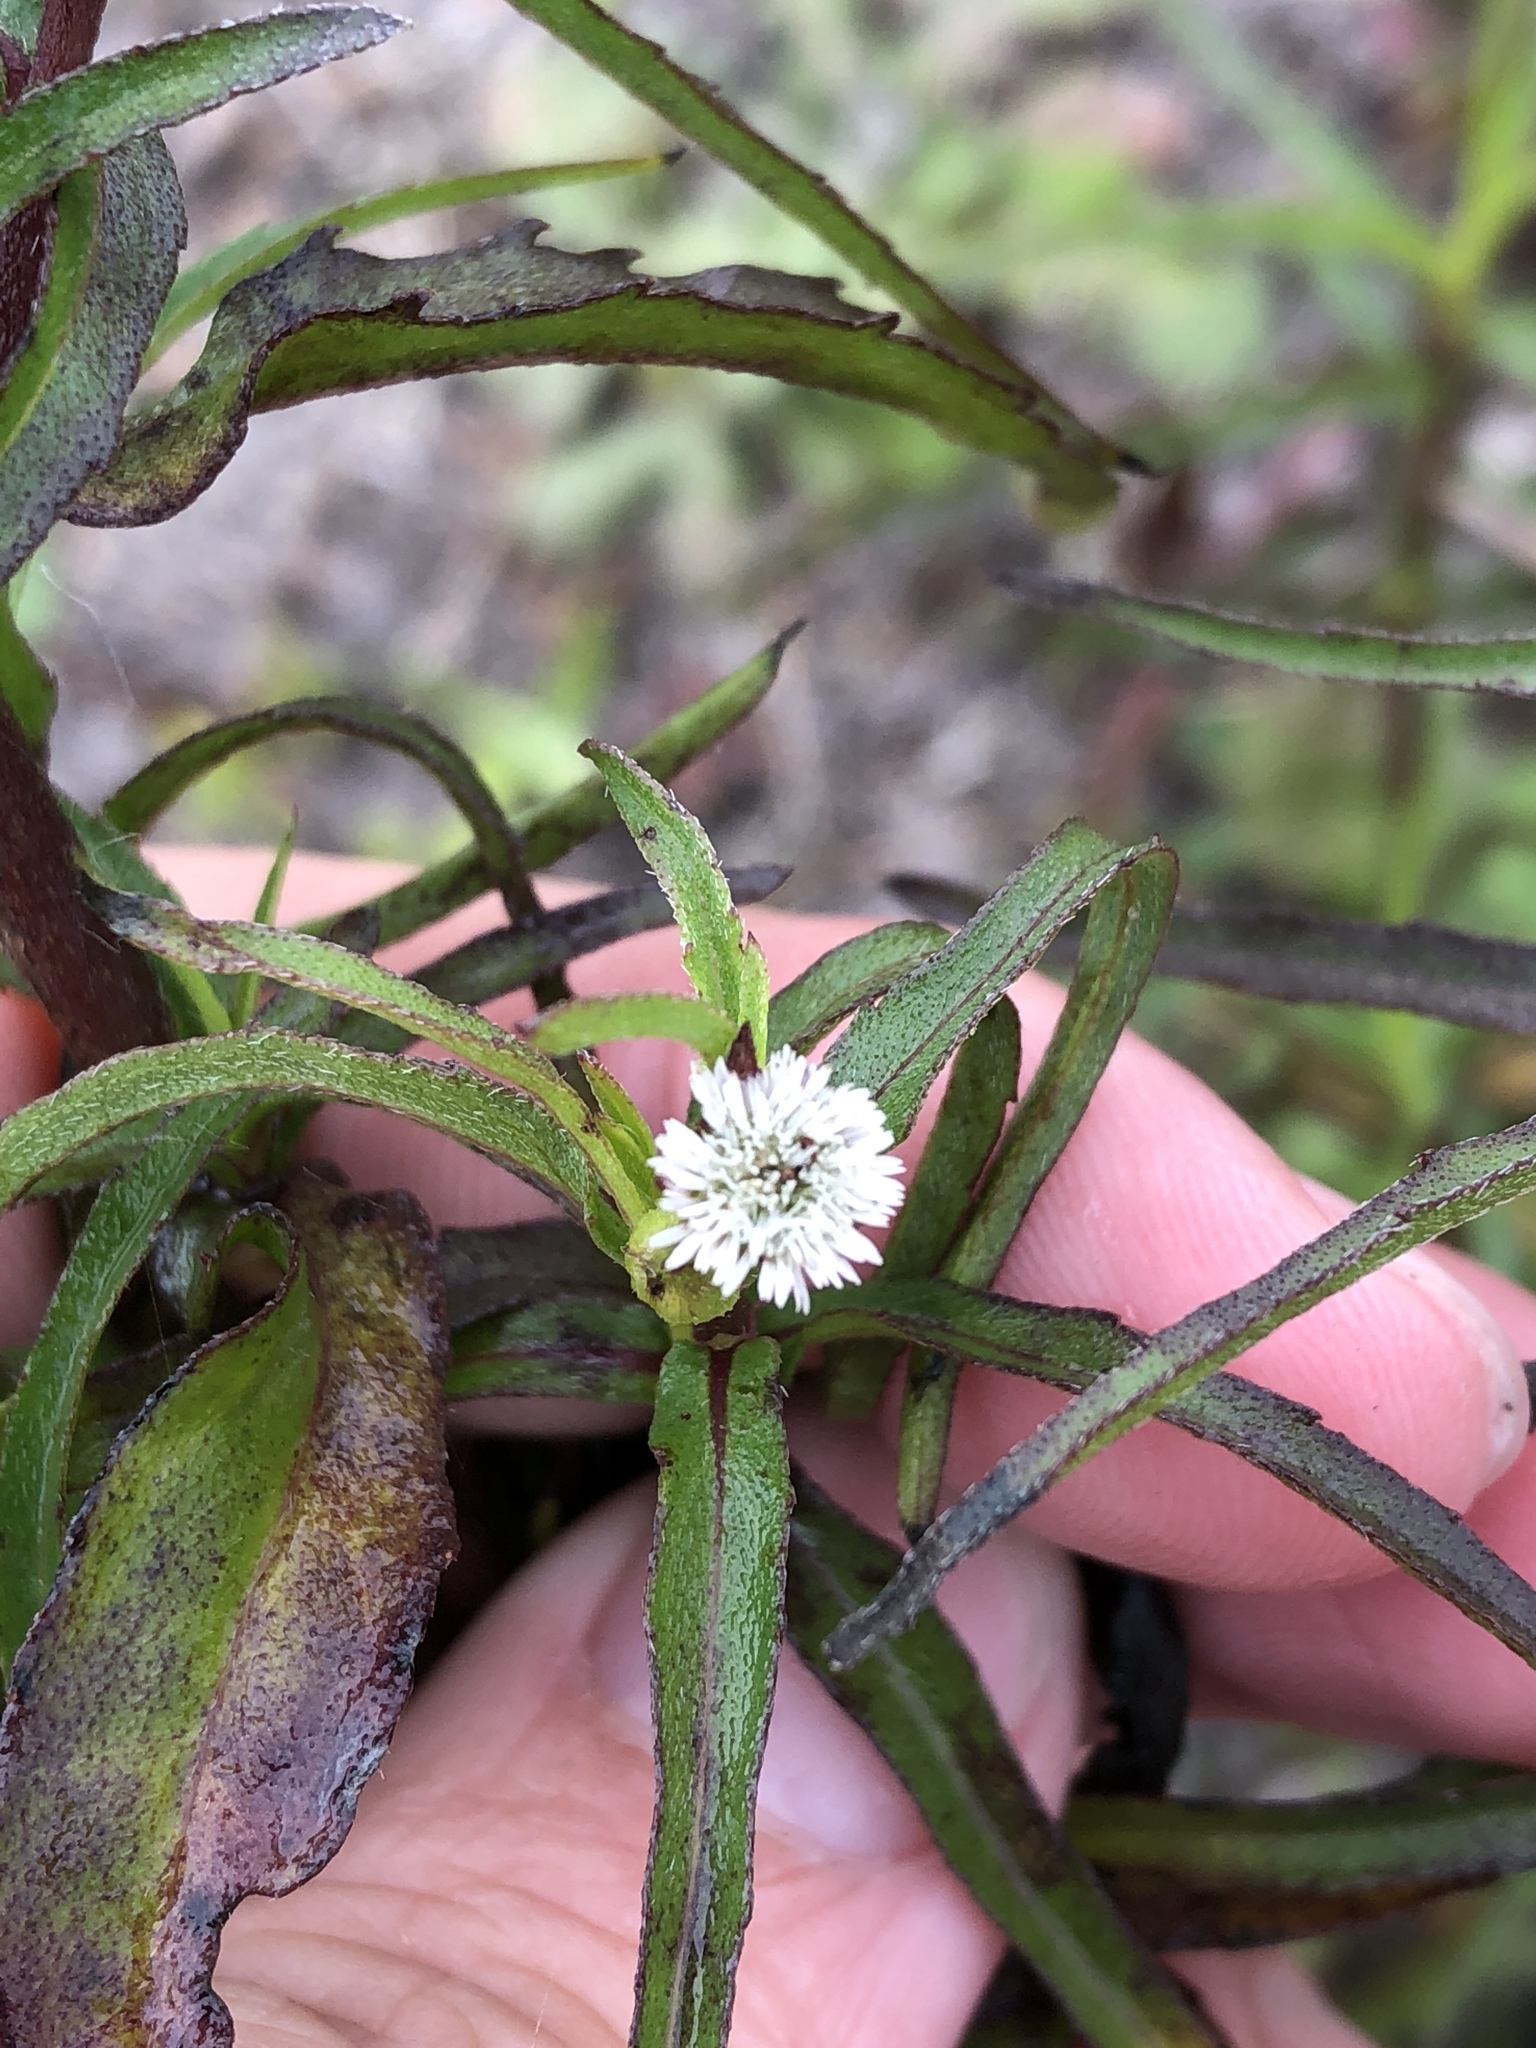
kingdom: Plantae
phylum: Tracheophyta
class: Magnoliopsida
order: Asterales
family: Asteraceae
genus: Eclipta
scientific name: Eclipta prostrata
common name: False daisy
